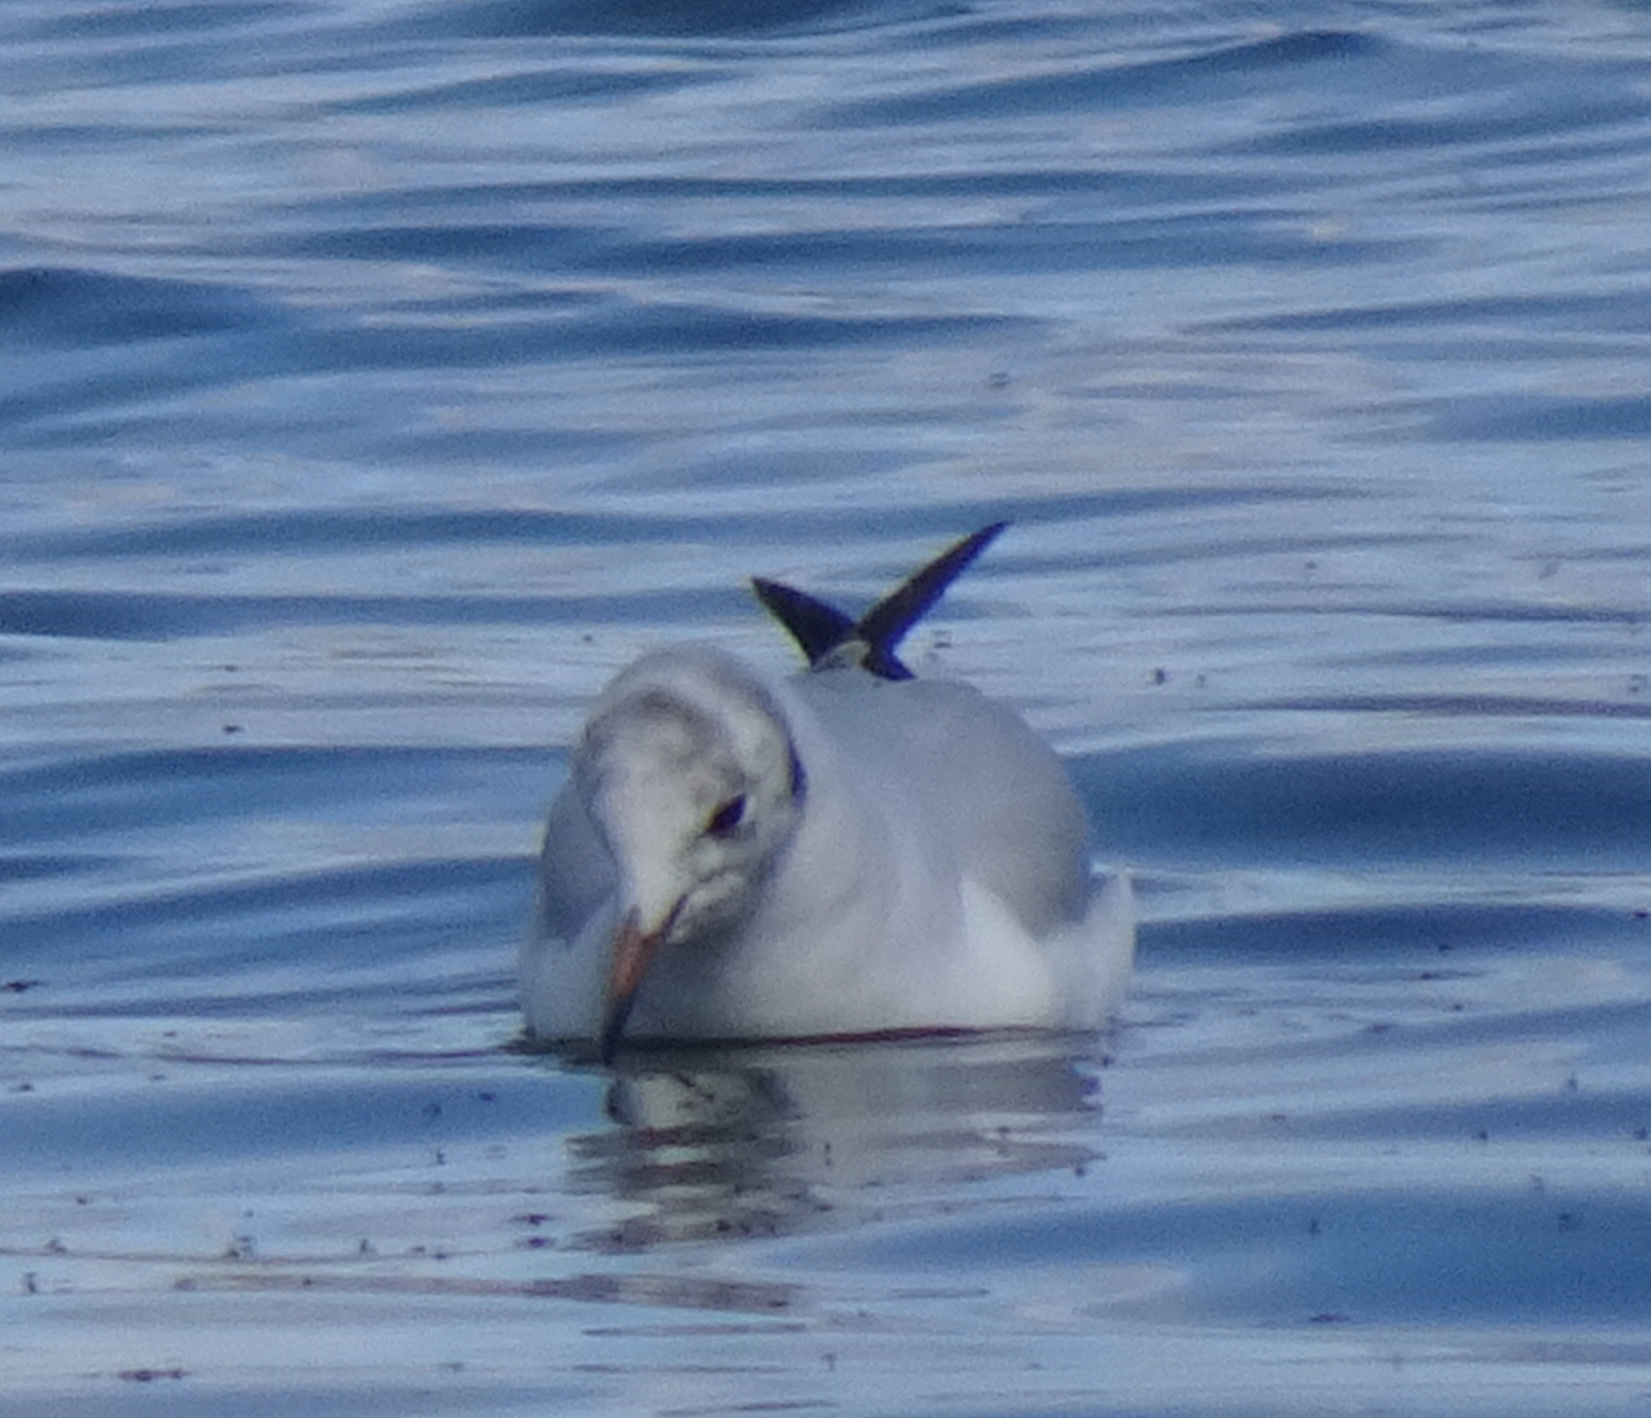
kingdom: Animalia
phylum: Chordata
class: Aves
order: Charadriiformes
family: Laridae
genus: Chroicocephalus
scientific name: Chroicocephalus ridibundus
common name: Black-headed gull
